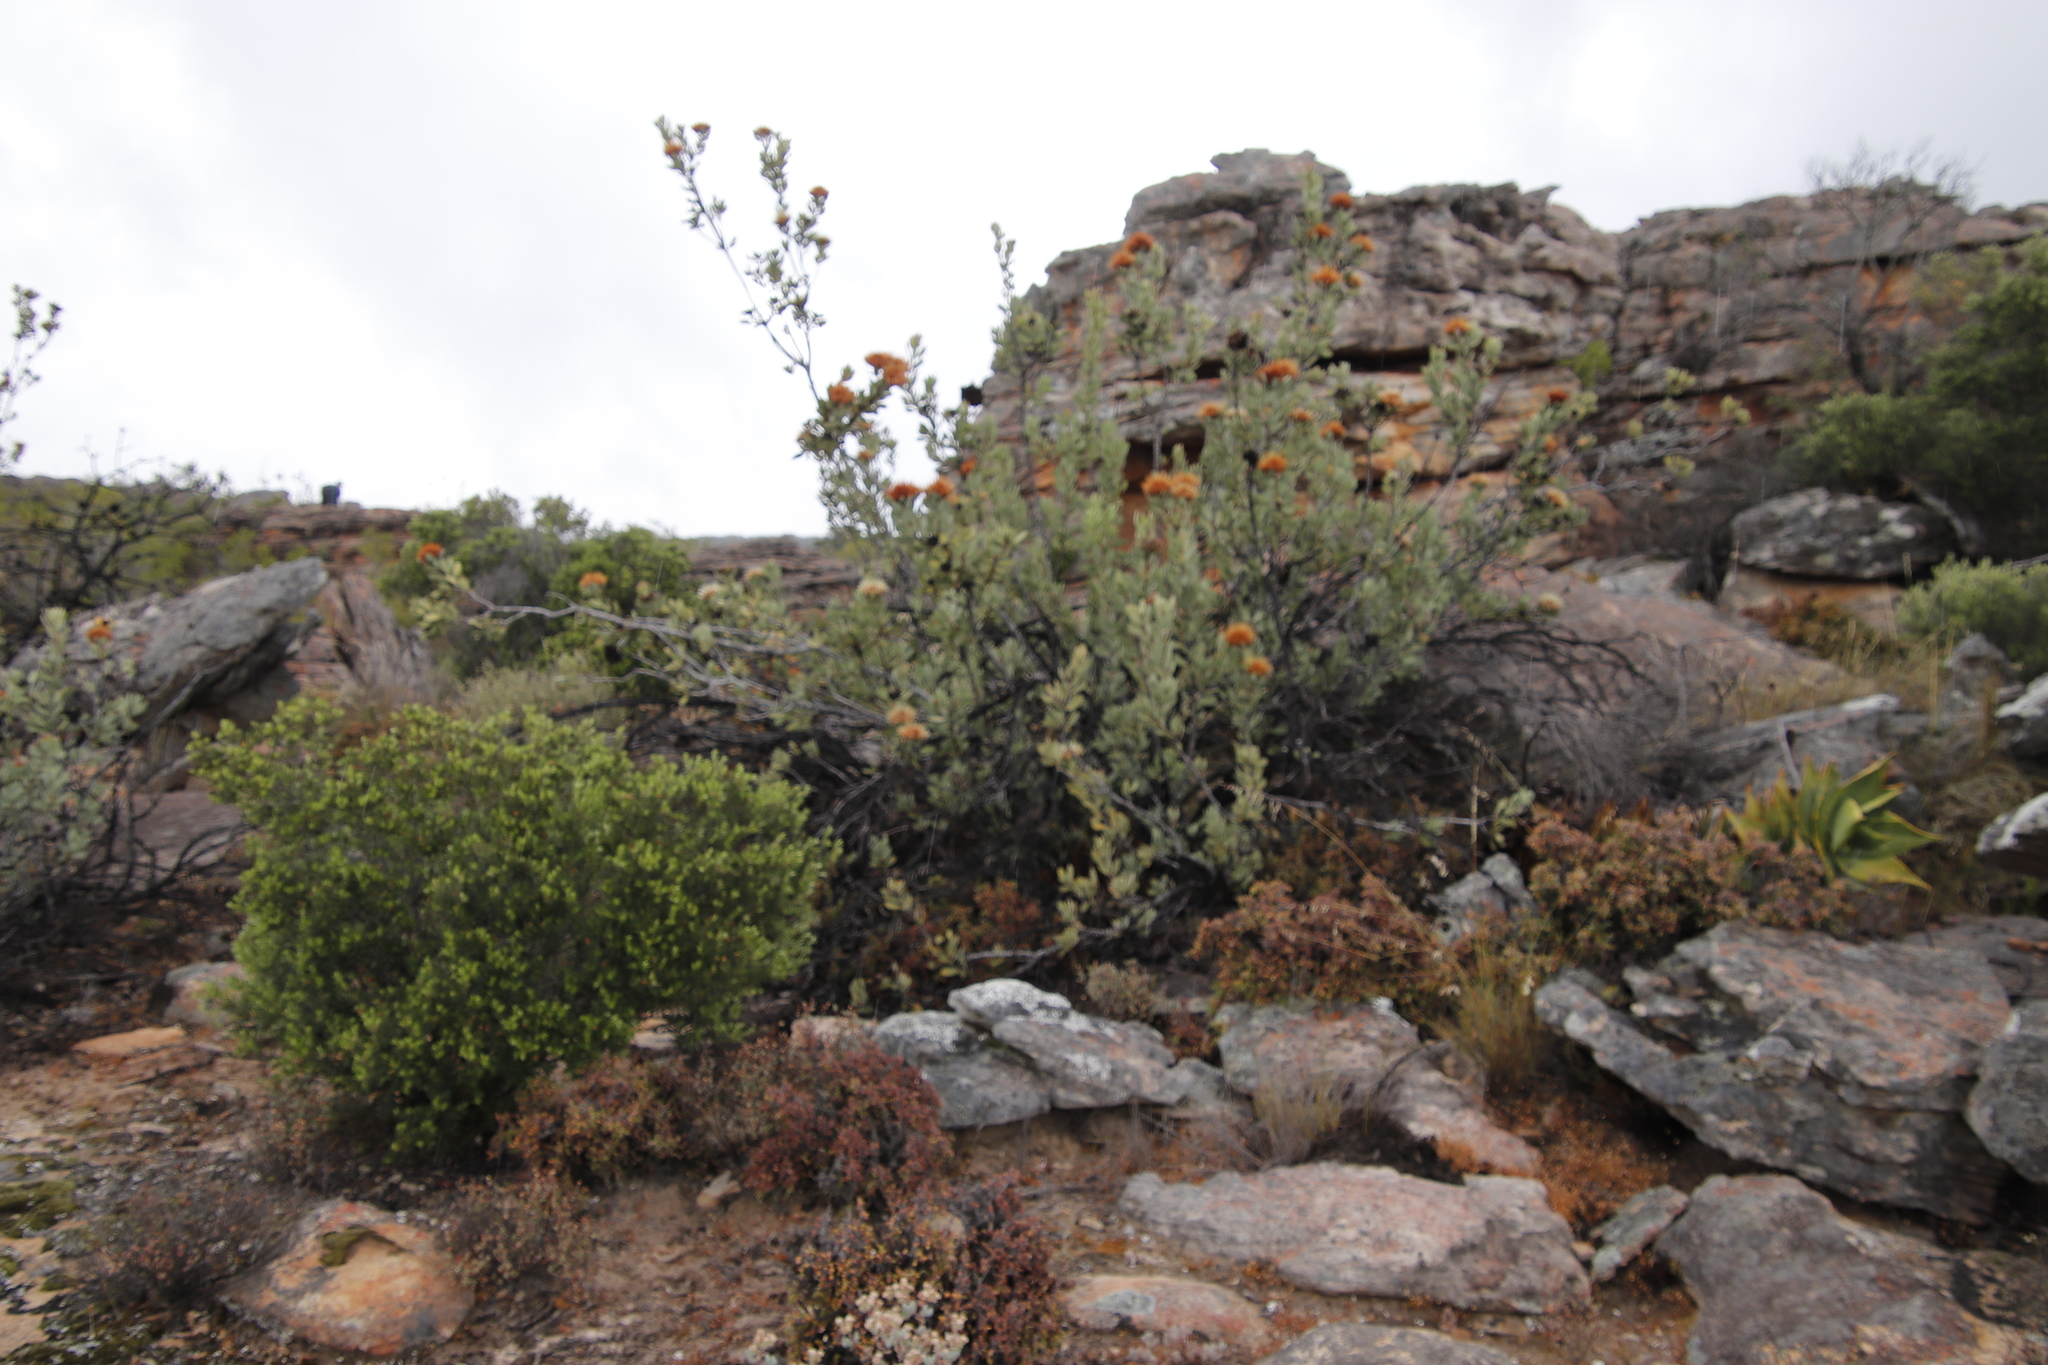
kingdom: Plantae
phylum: Tracheophyta
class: Magnoliopsida
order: Proteales
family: Proteaceae
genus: Protea
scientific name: Protea glabra
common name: Chestnut sugarbush
